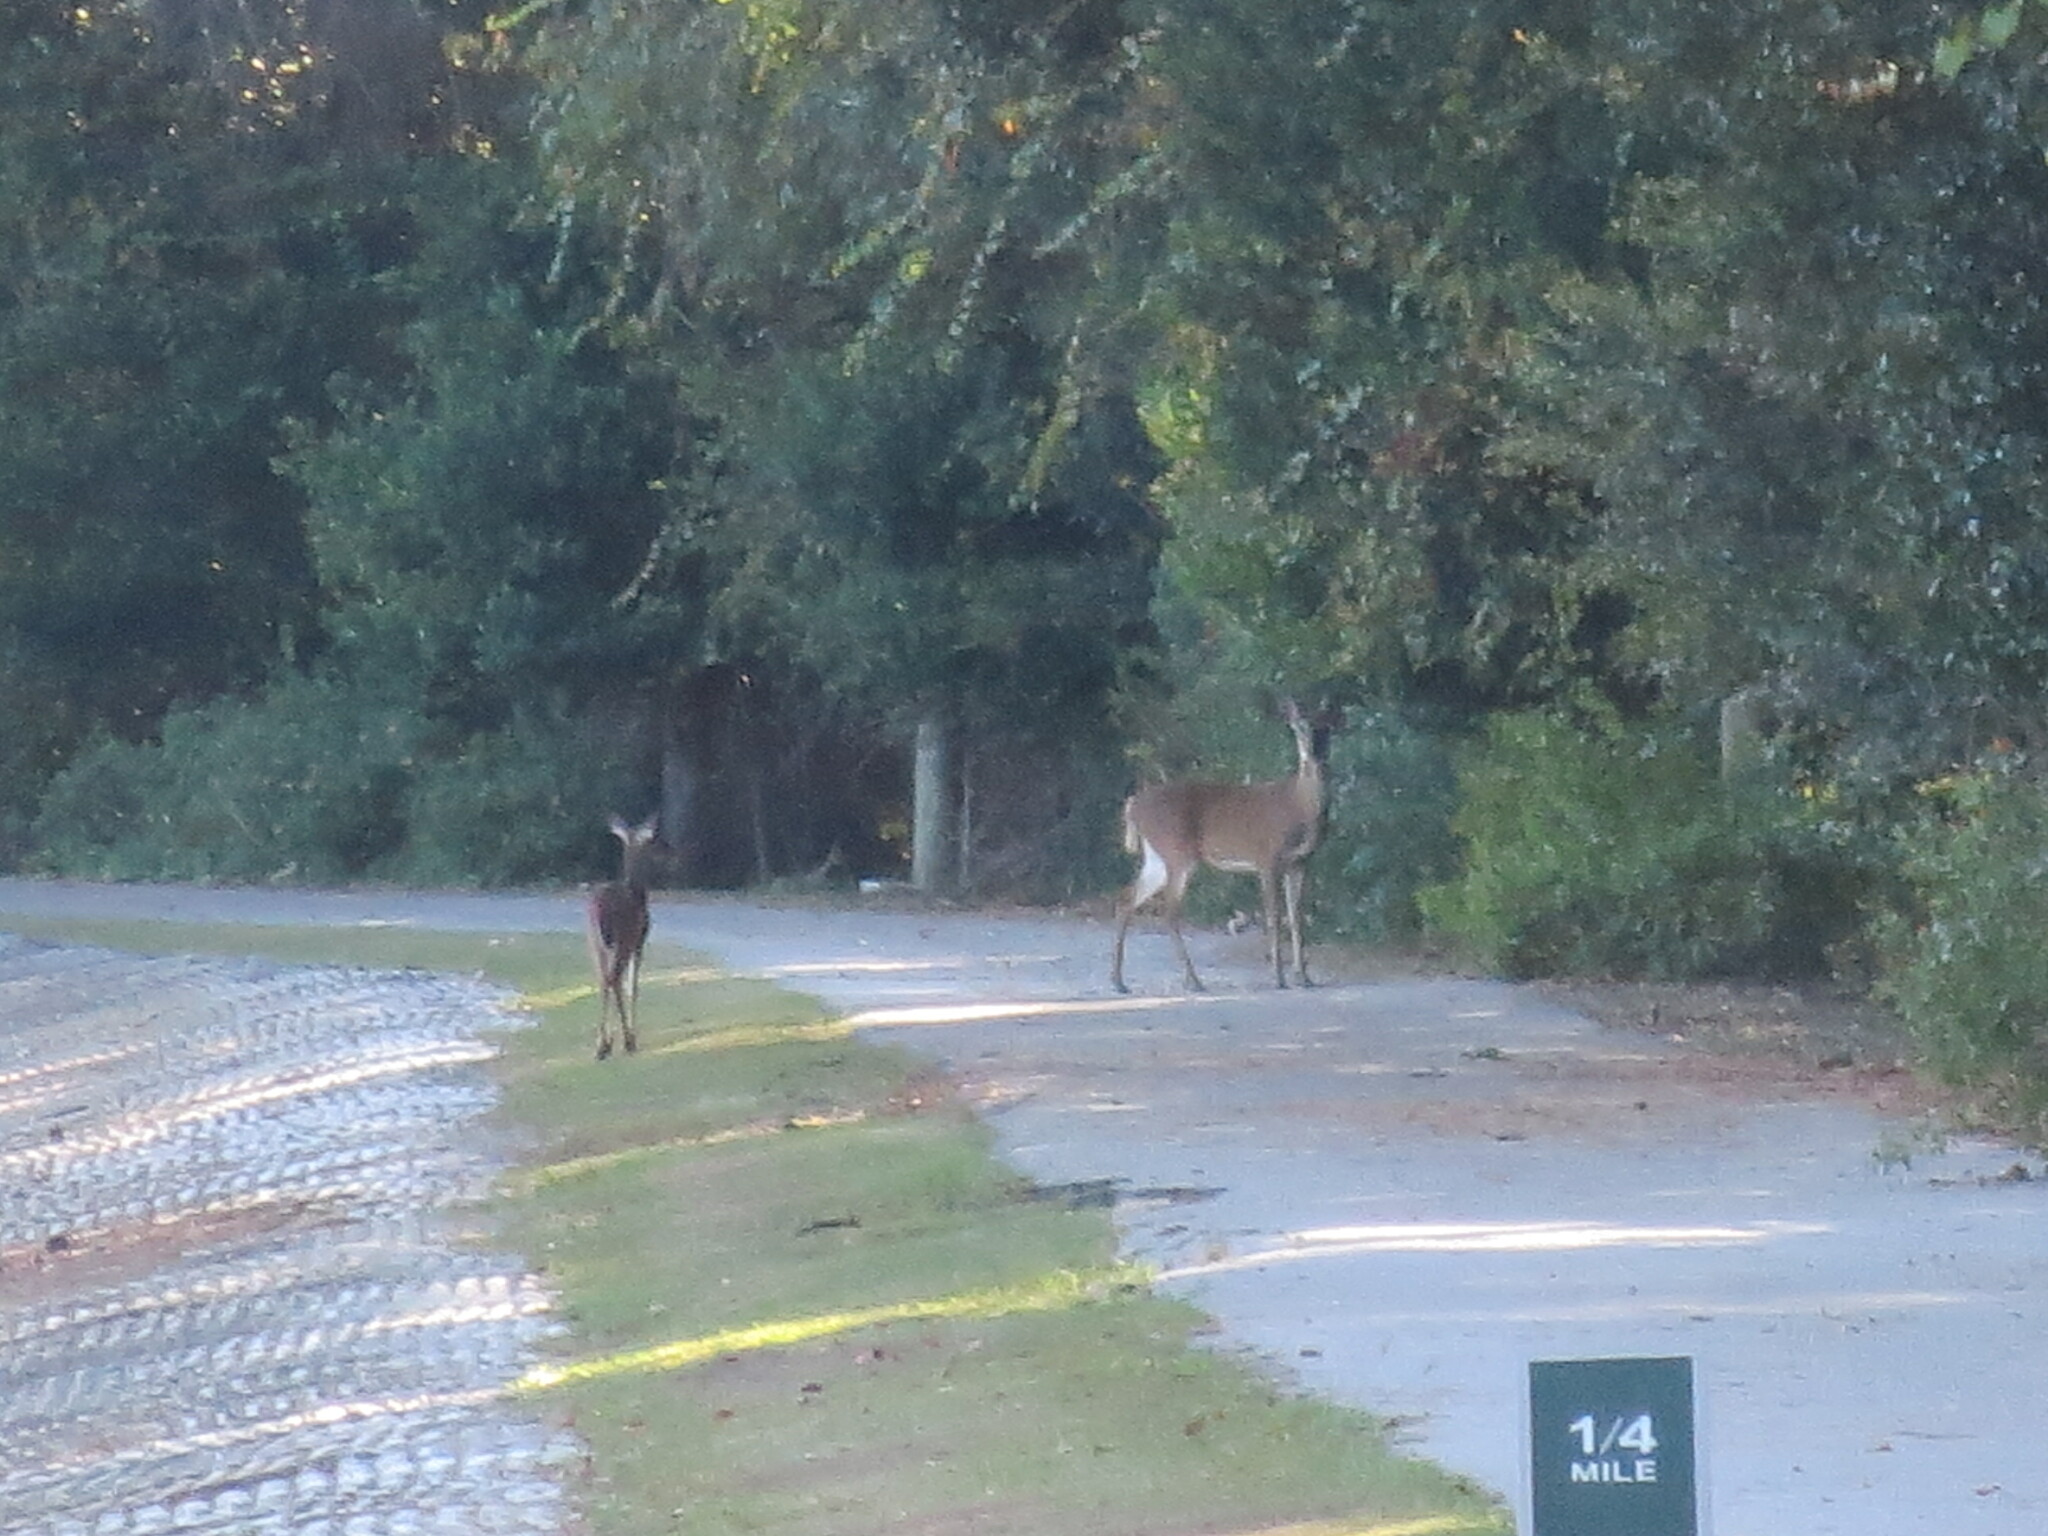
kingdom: Animalia
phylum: Chordata
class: Mammalia
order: Artiodactyla
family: Cervidae
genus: Odocoileus
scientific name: Odocoileus virginianus
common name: White-tailed deer
